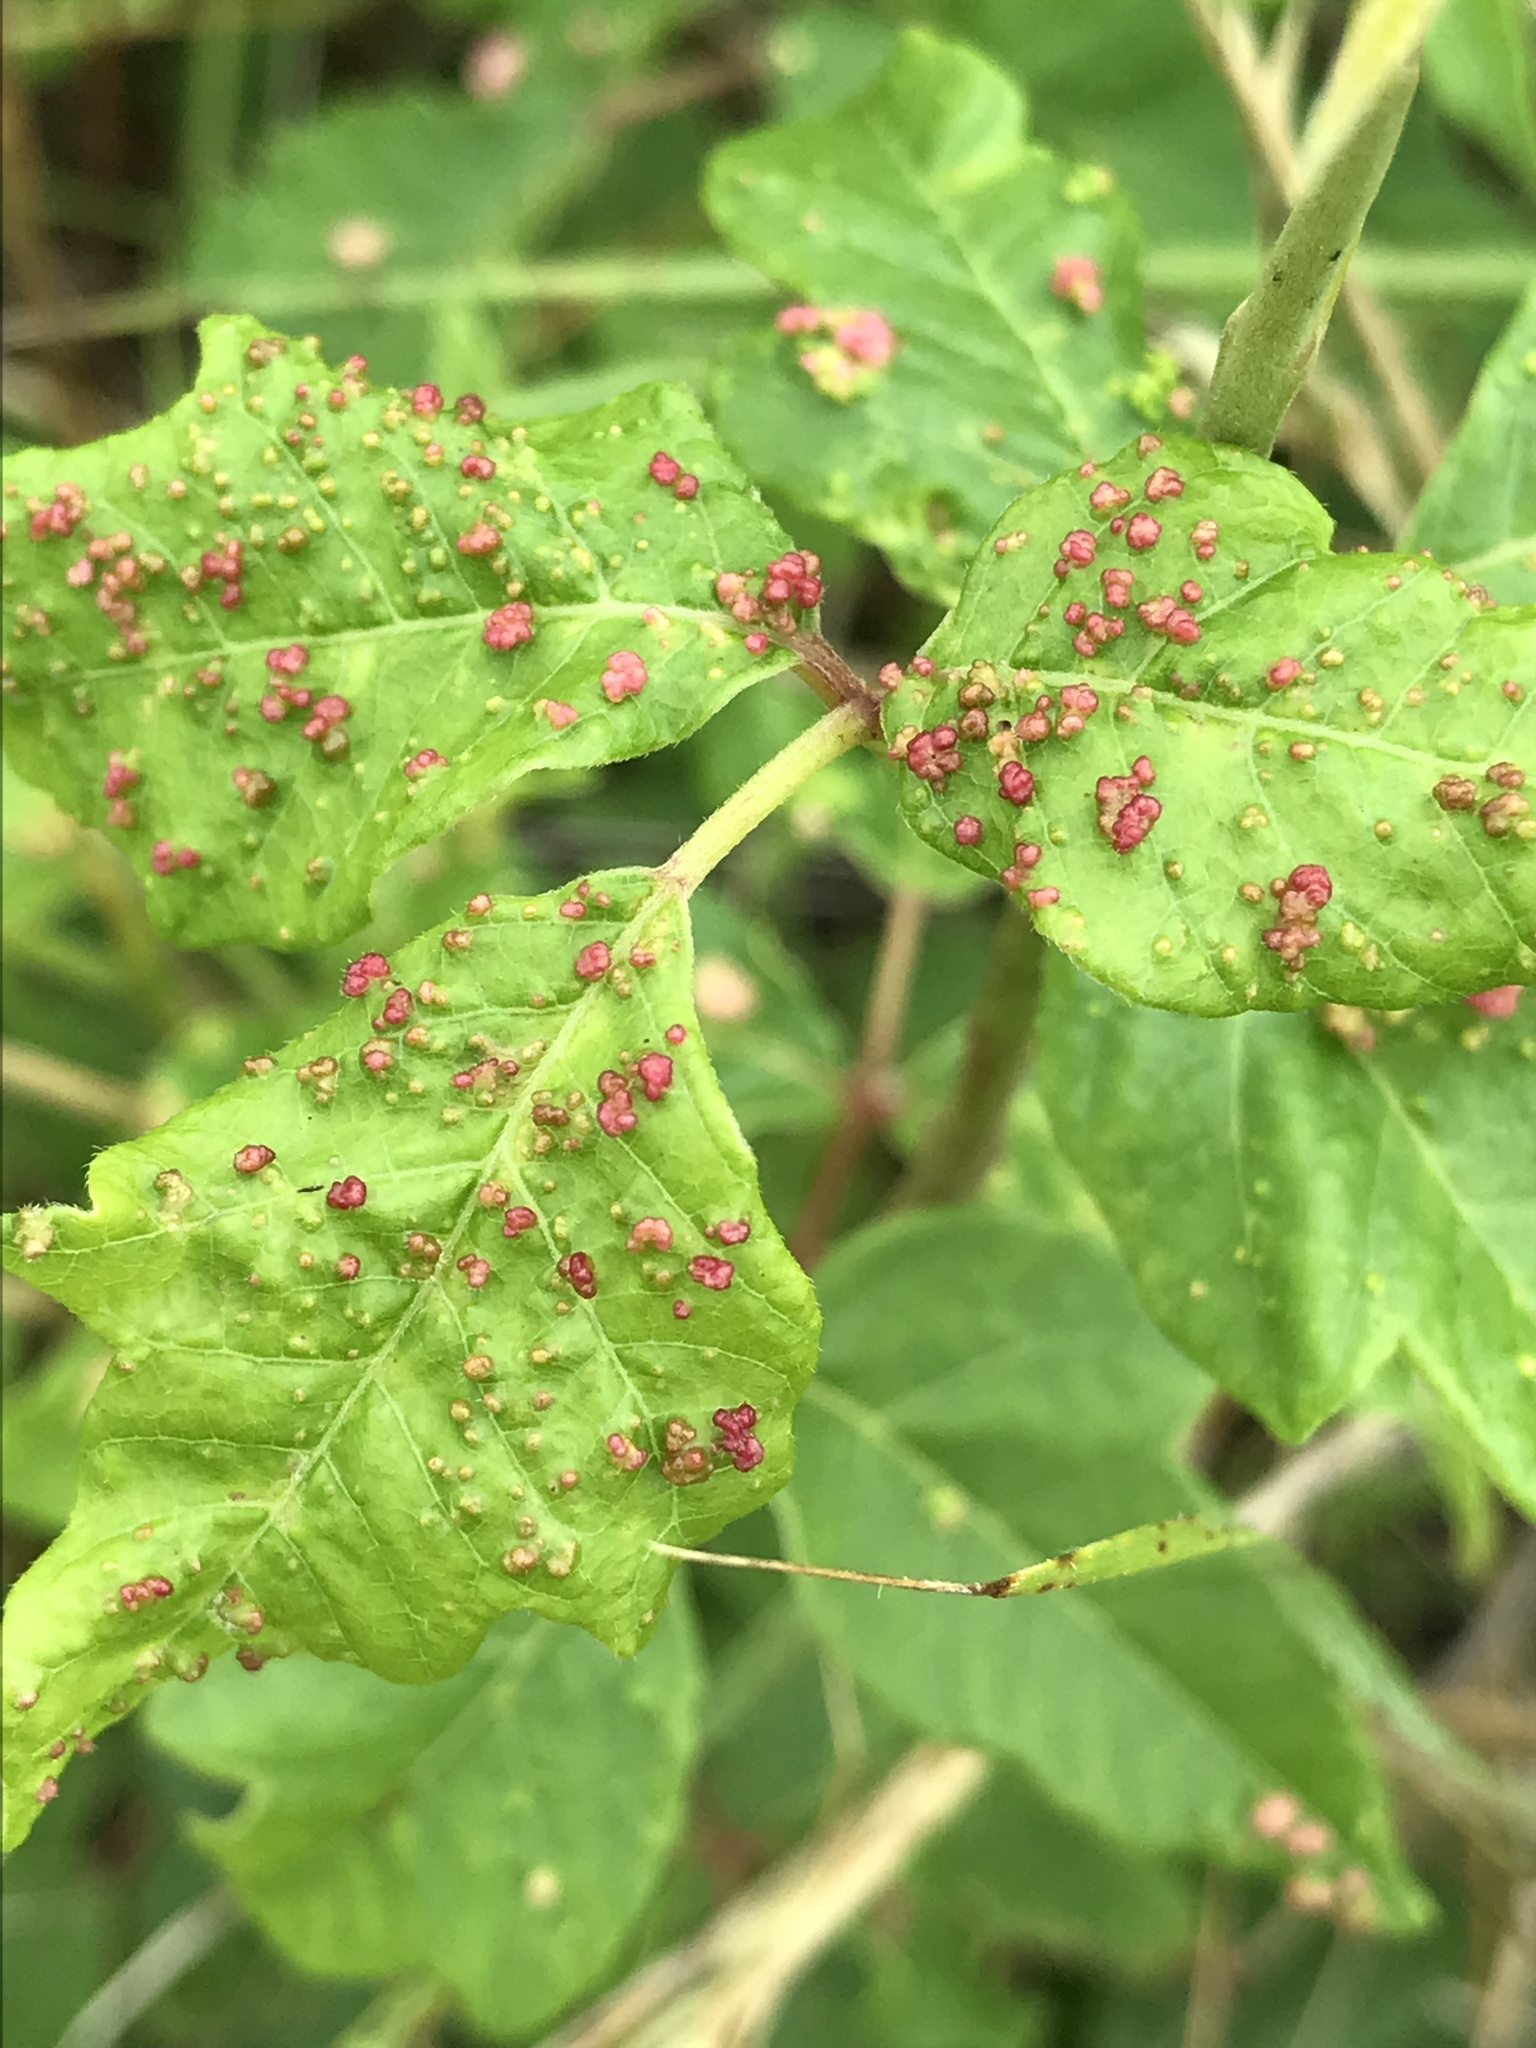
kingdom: Animalia
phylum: Arthropoda
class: Arachnida
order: Trombidiformes
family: Eriophyidae
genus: Aculops
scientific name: Aculops
